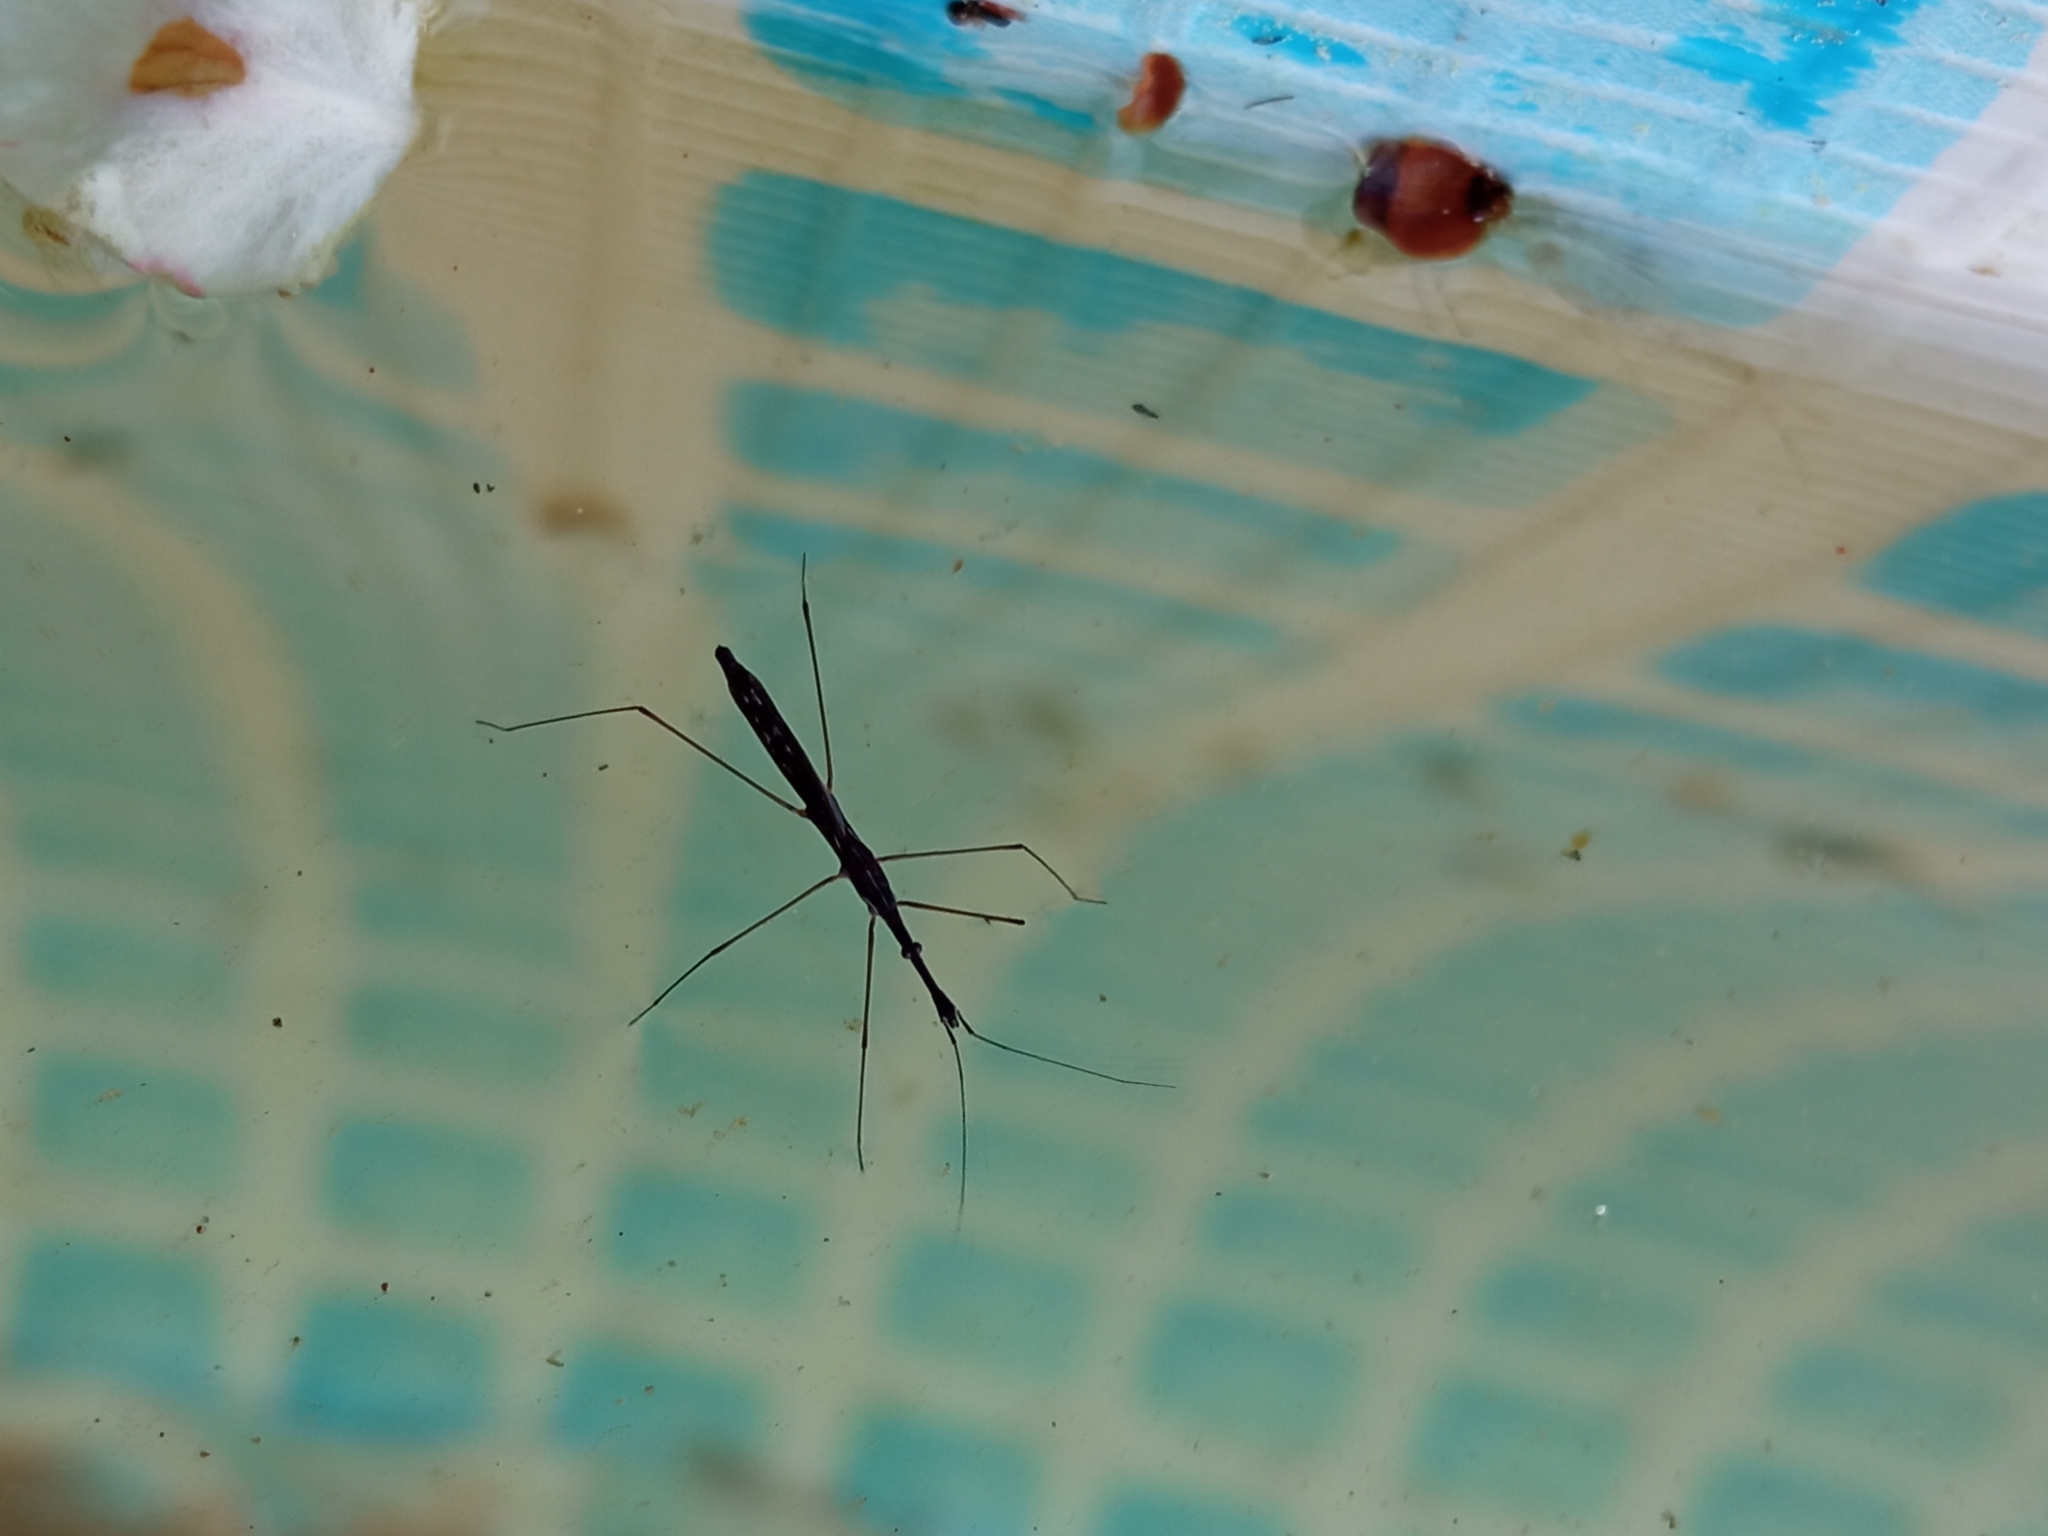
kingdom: Animalia
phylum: Arthropoda
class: Insecta
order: Hemiptera
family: Hydrometridae
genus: Hydrometra
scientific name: Hydrometra stagnorum
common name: Water measurer
